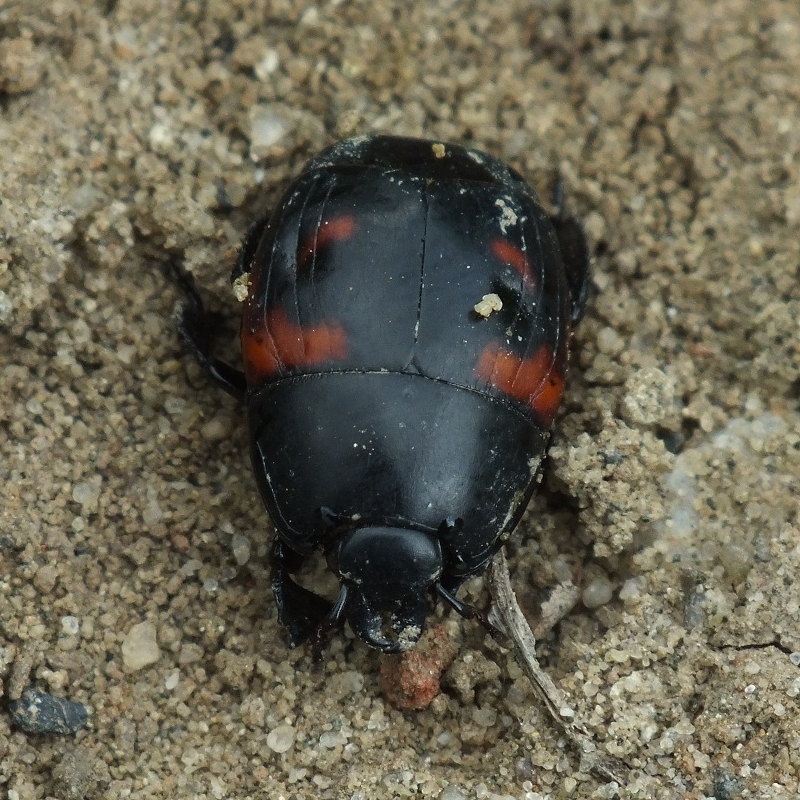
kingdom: Animalia
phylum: Arthropoda
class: Insecta
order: Coleoptera
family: Histeridae
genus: Hister
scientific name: Hister quadrimaculatus
